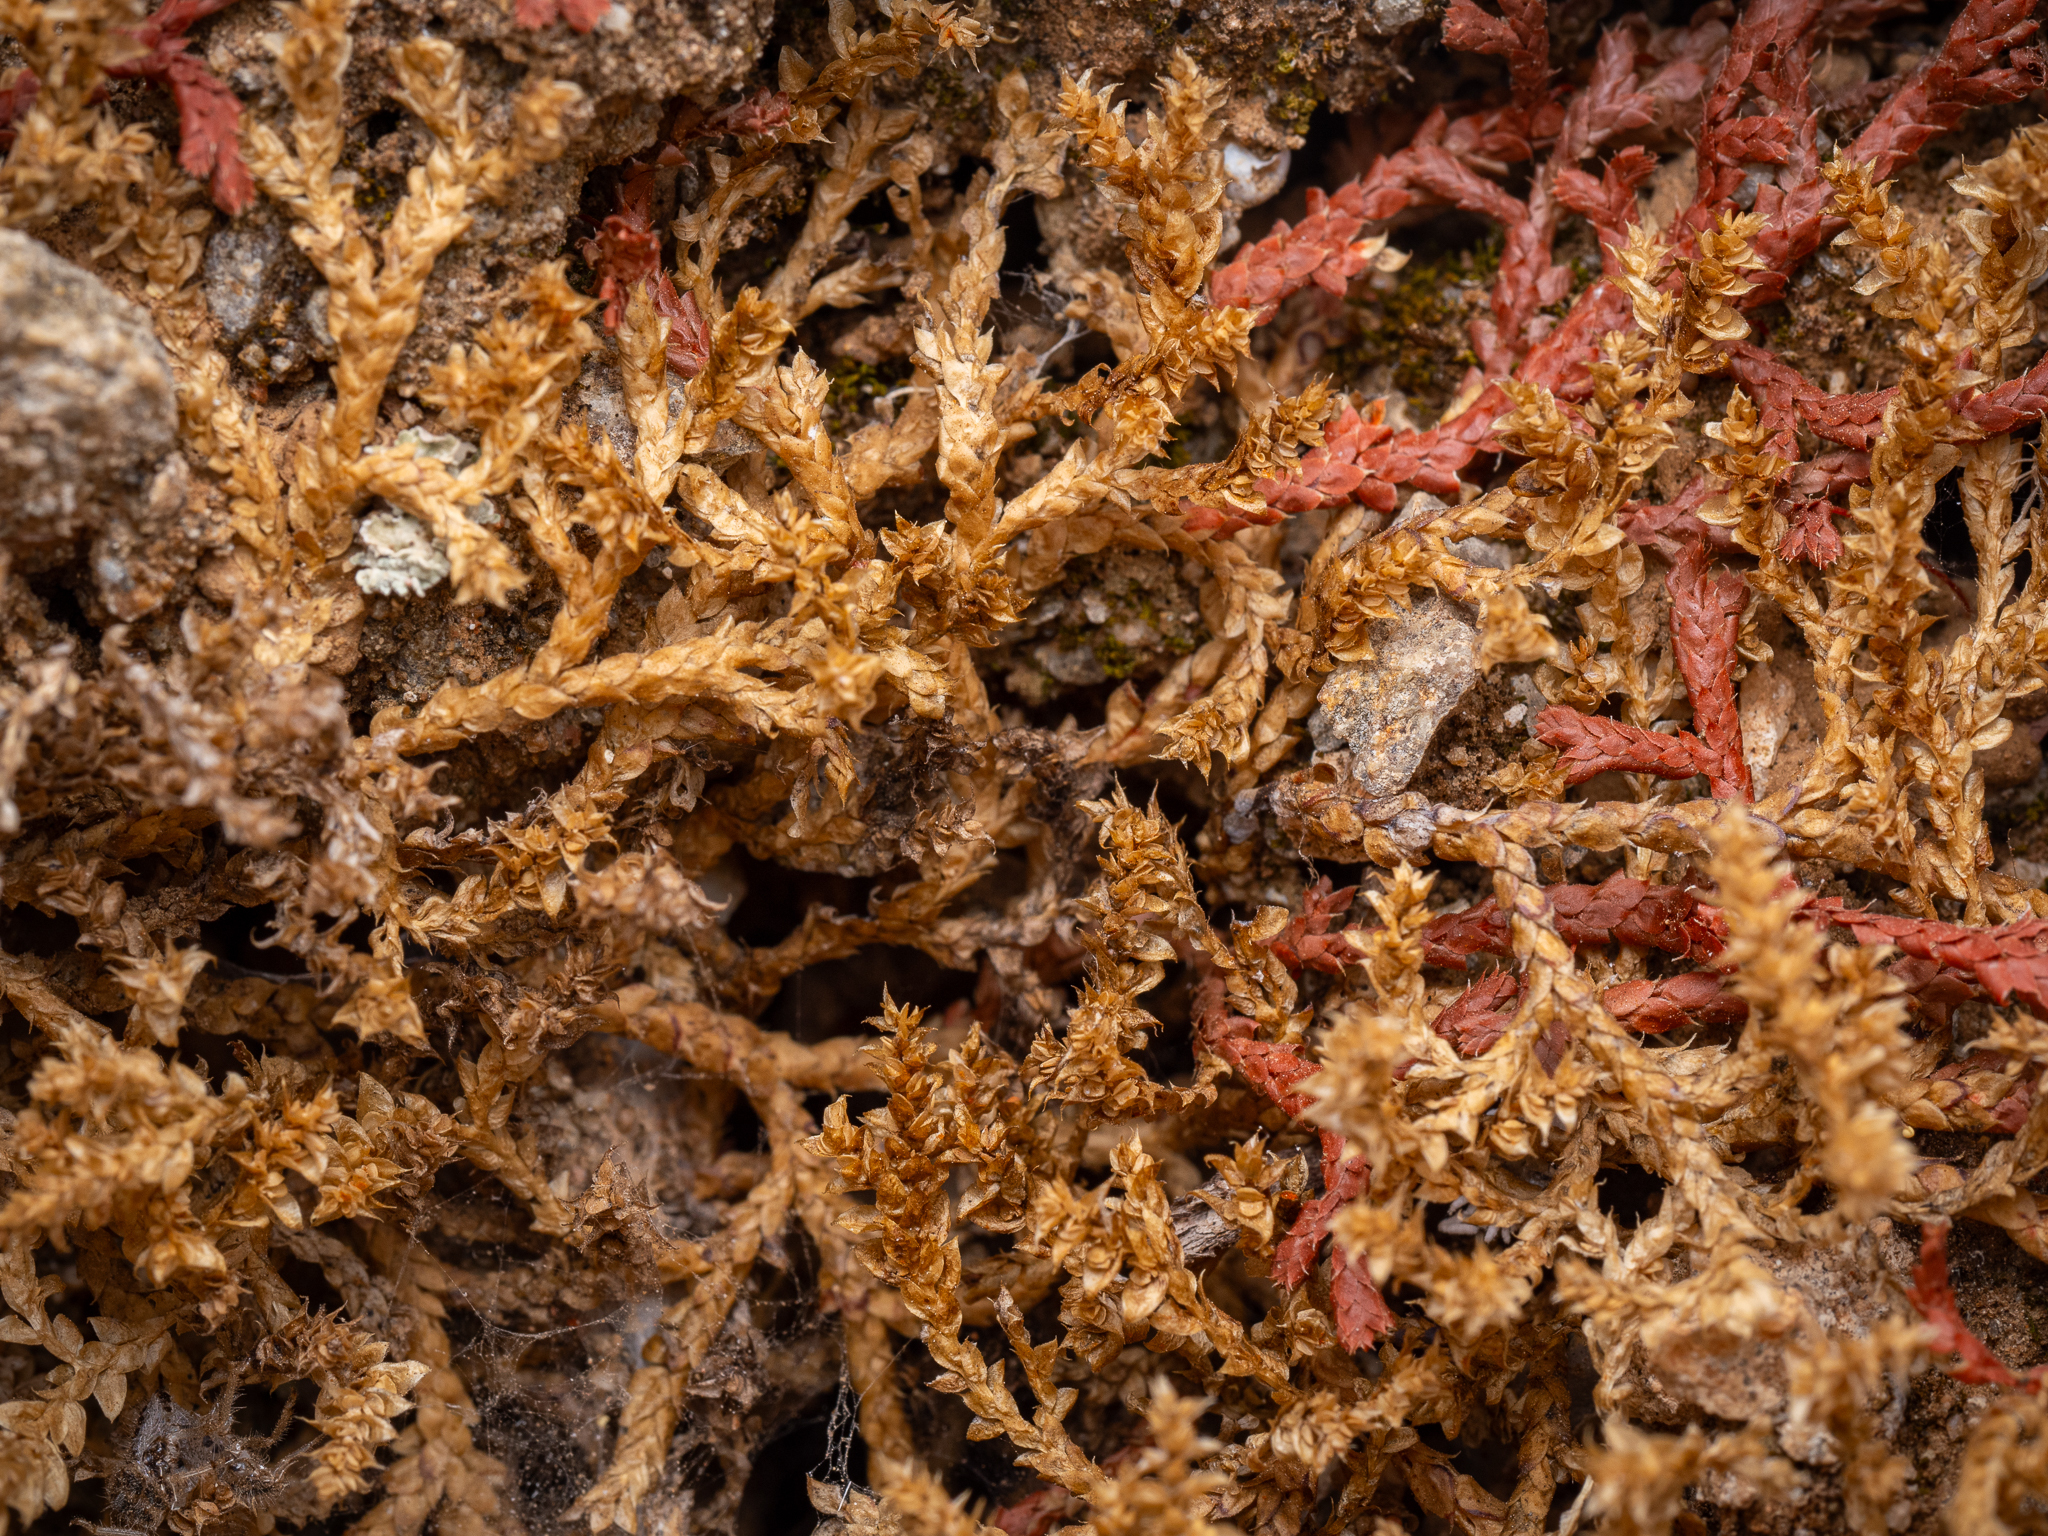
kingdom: Plantae
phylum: Tracheophyta
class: Lycopodiopsida
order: Selaginellales
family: Selaginellaceae
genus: Selaginella
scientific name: Selaginella denticulata
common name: Toothed-leaved clubmoss
